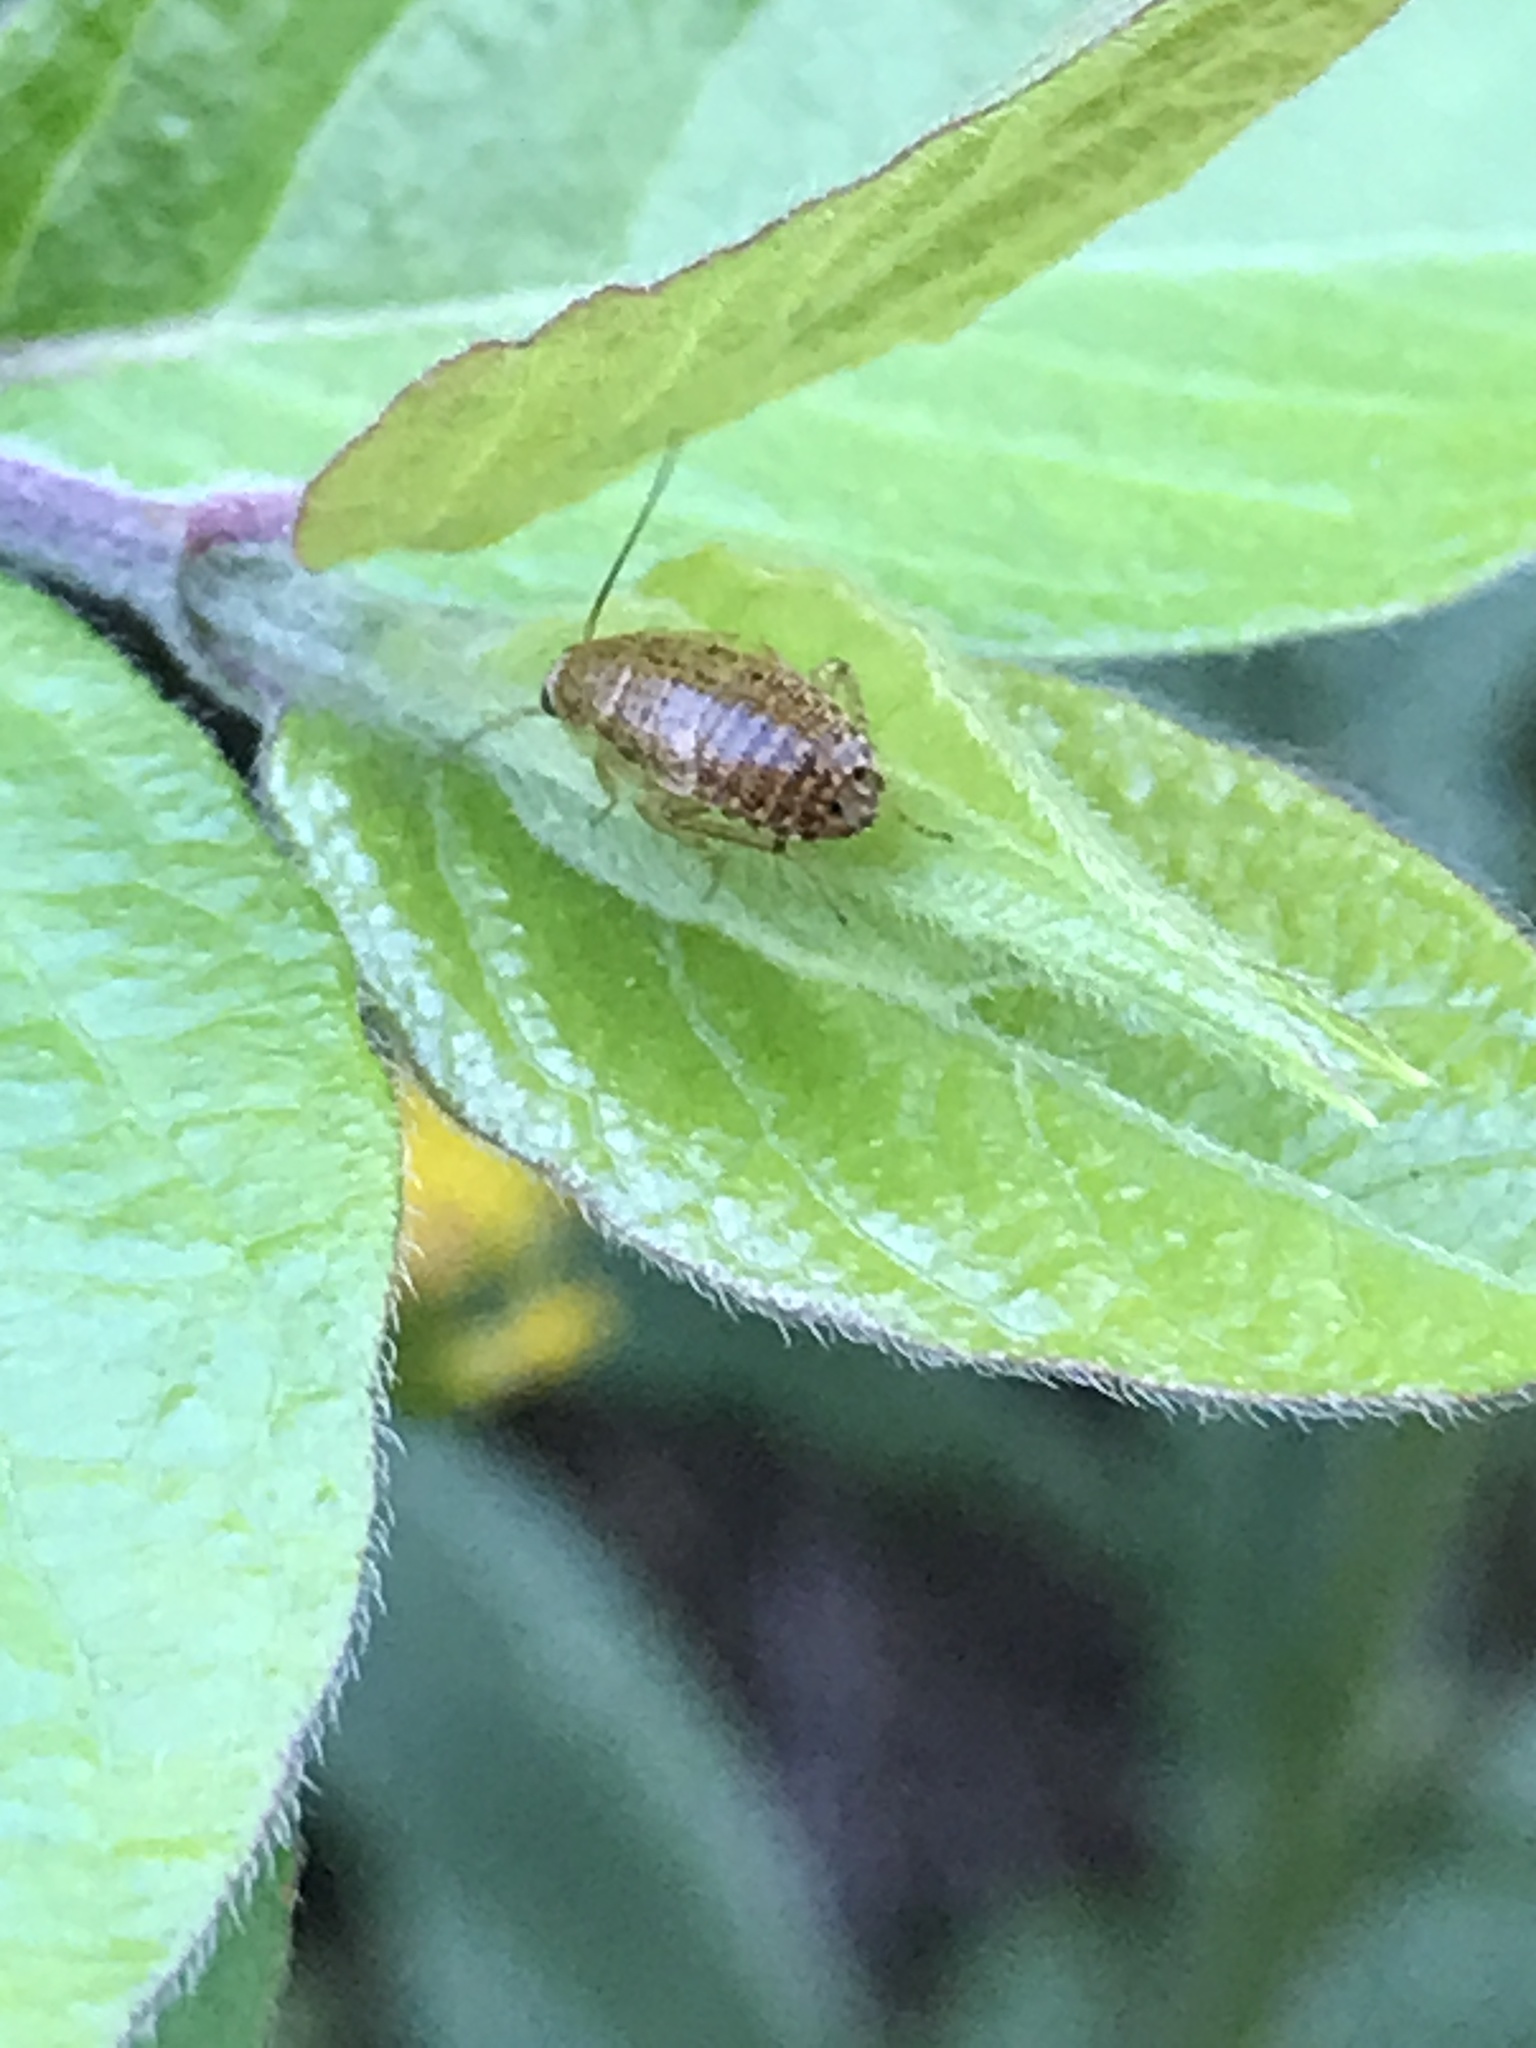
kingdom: Animalia
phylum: Arthropoda
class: Insecta
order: Blattodea
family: Ectobiidae
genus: Ectobius
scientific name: Ectobius pallidus
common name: Tawny cockroach
